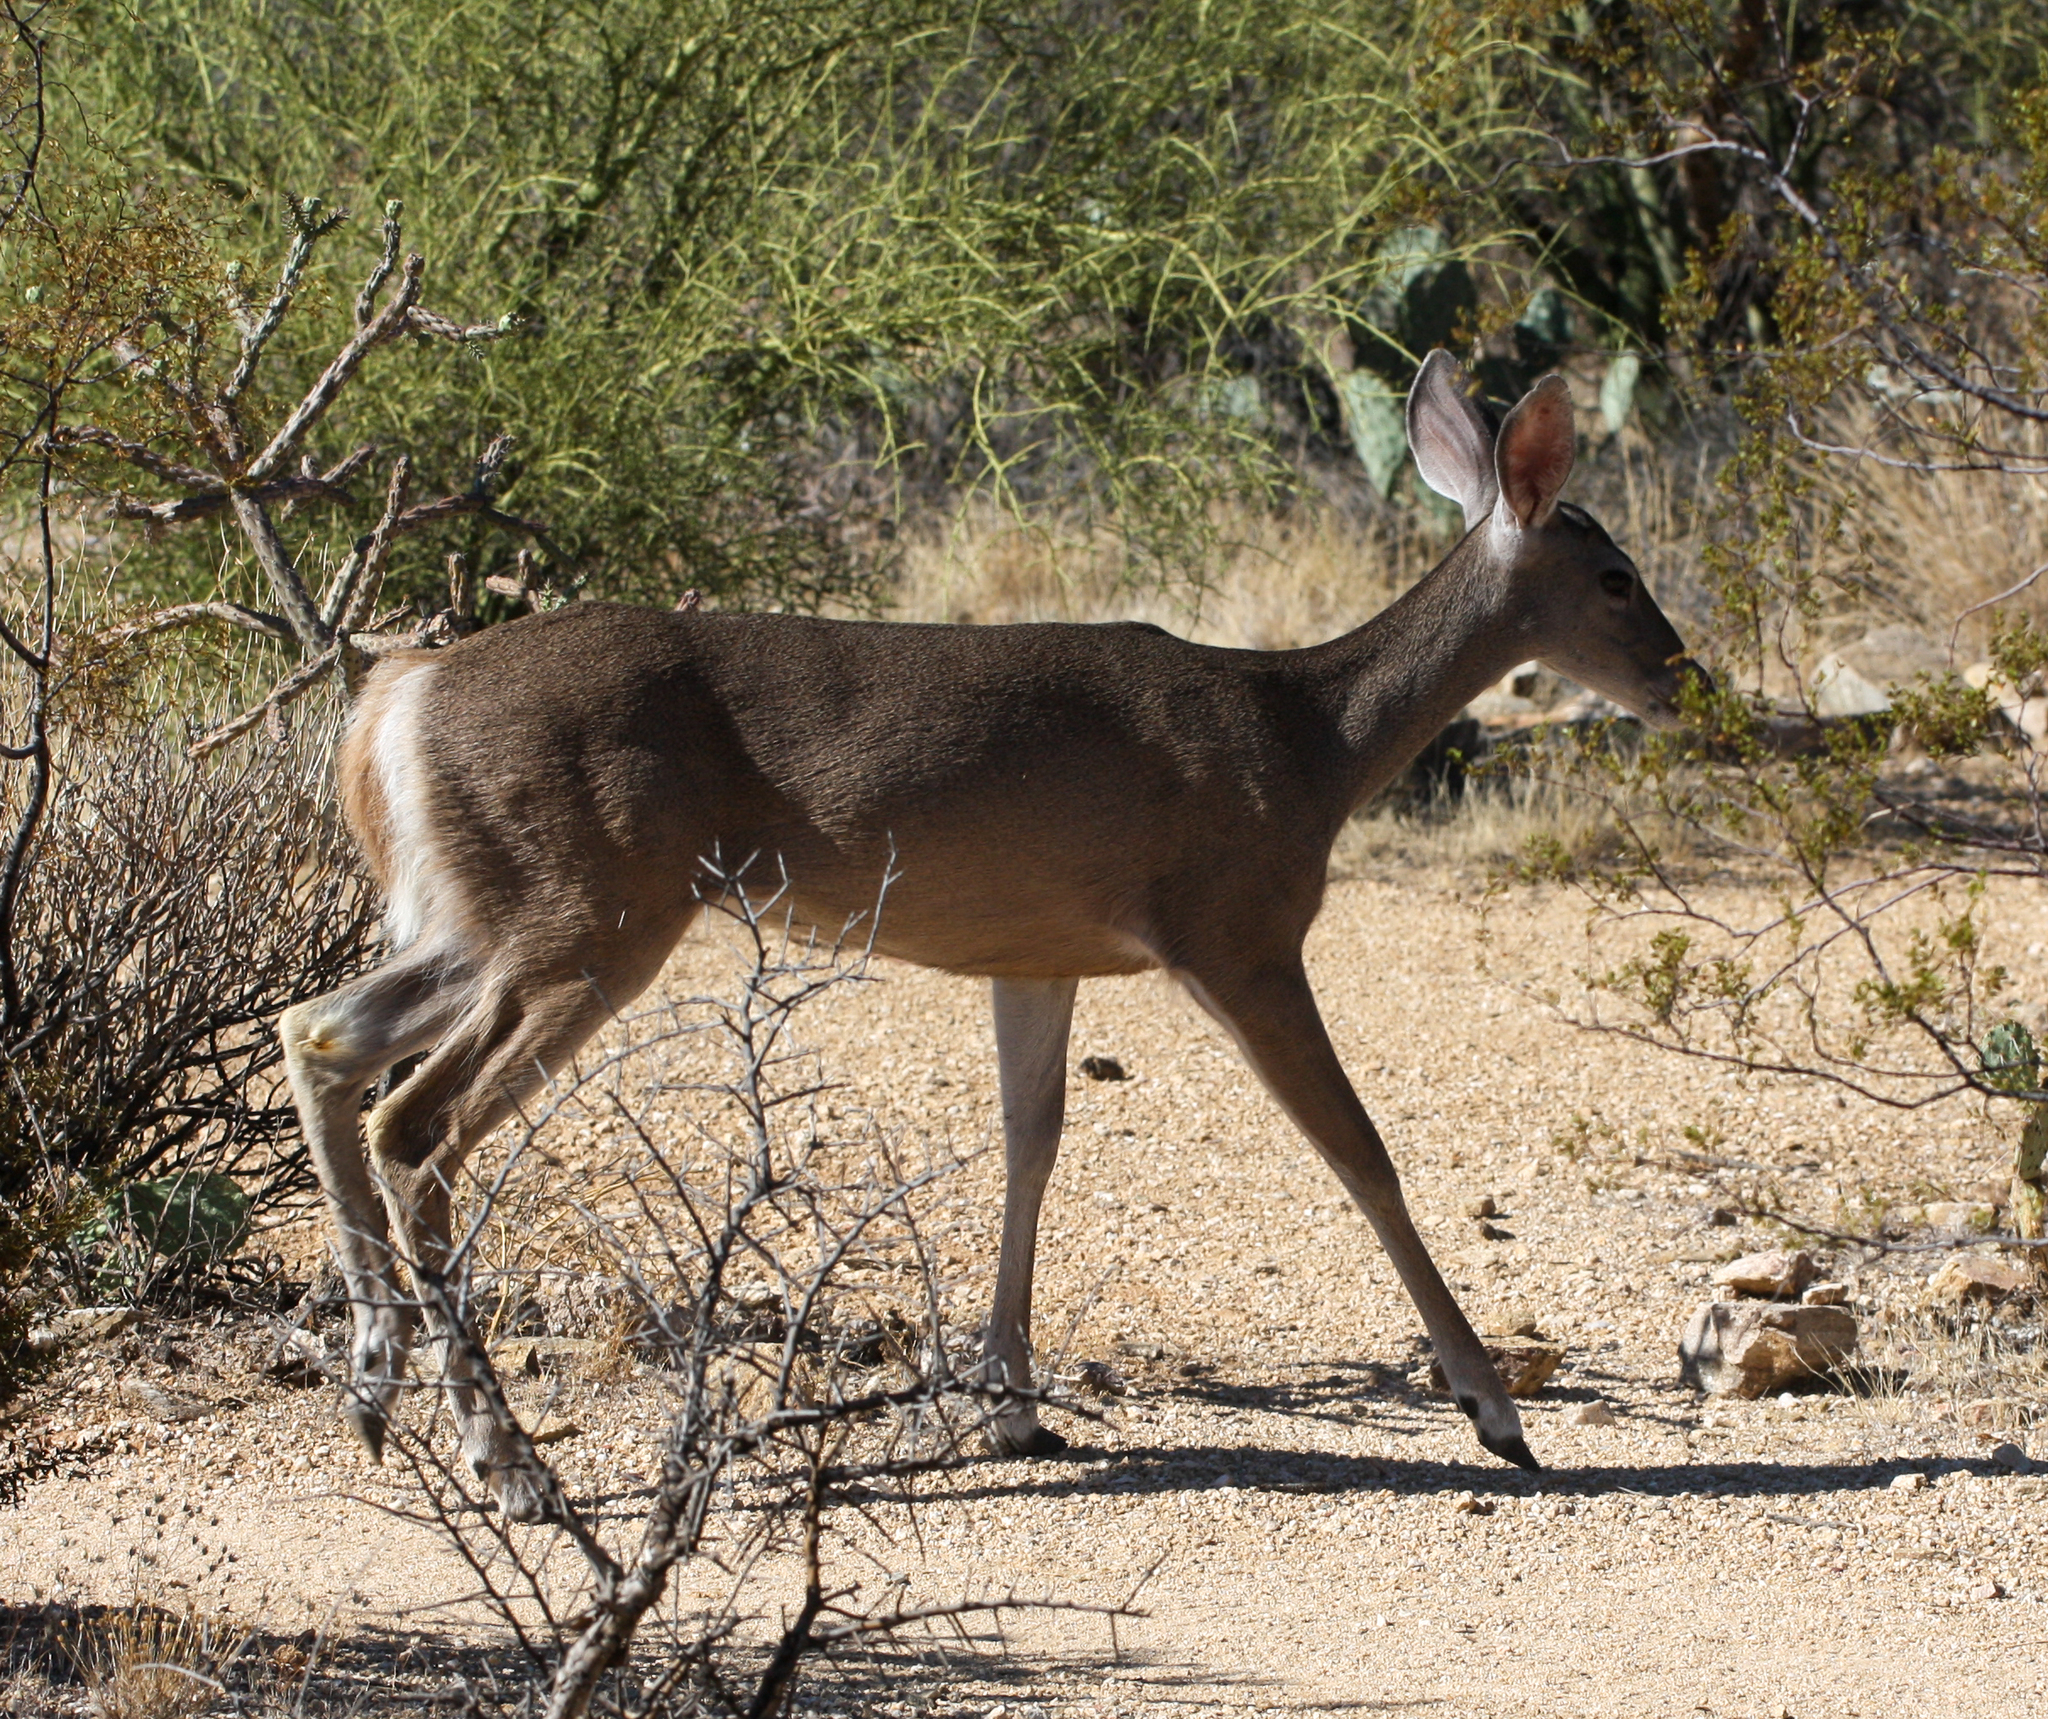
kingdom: Animalia
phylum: Chordata
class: Mammalia
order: Artiodactyla
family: Cervidae
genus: Odocoileus
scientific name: Odocoileus virginianus
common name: White-tailed deer
